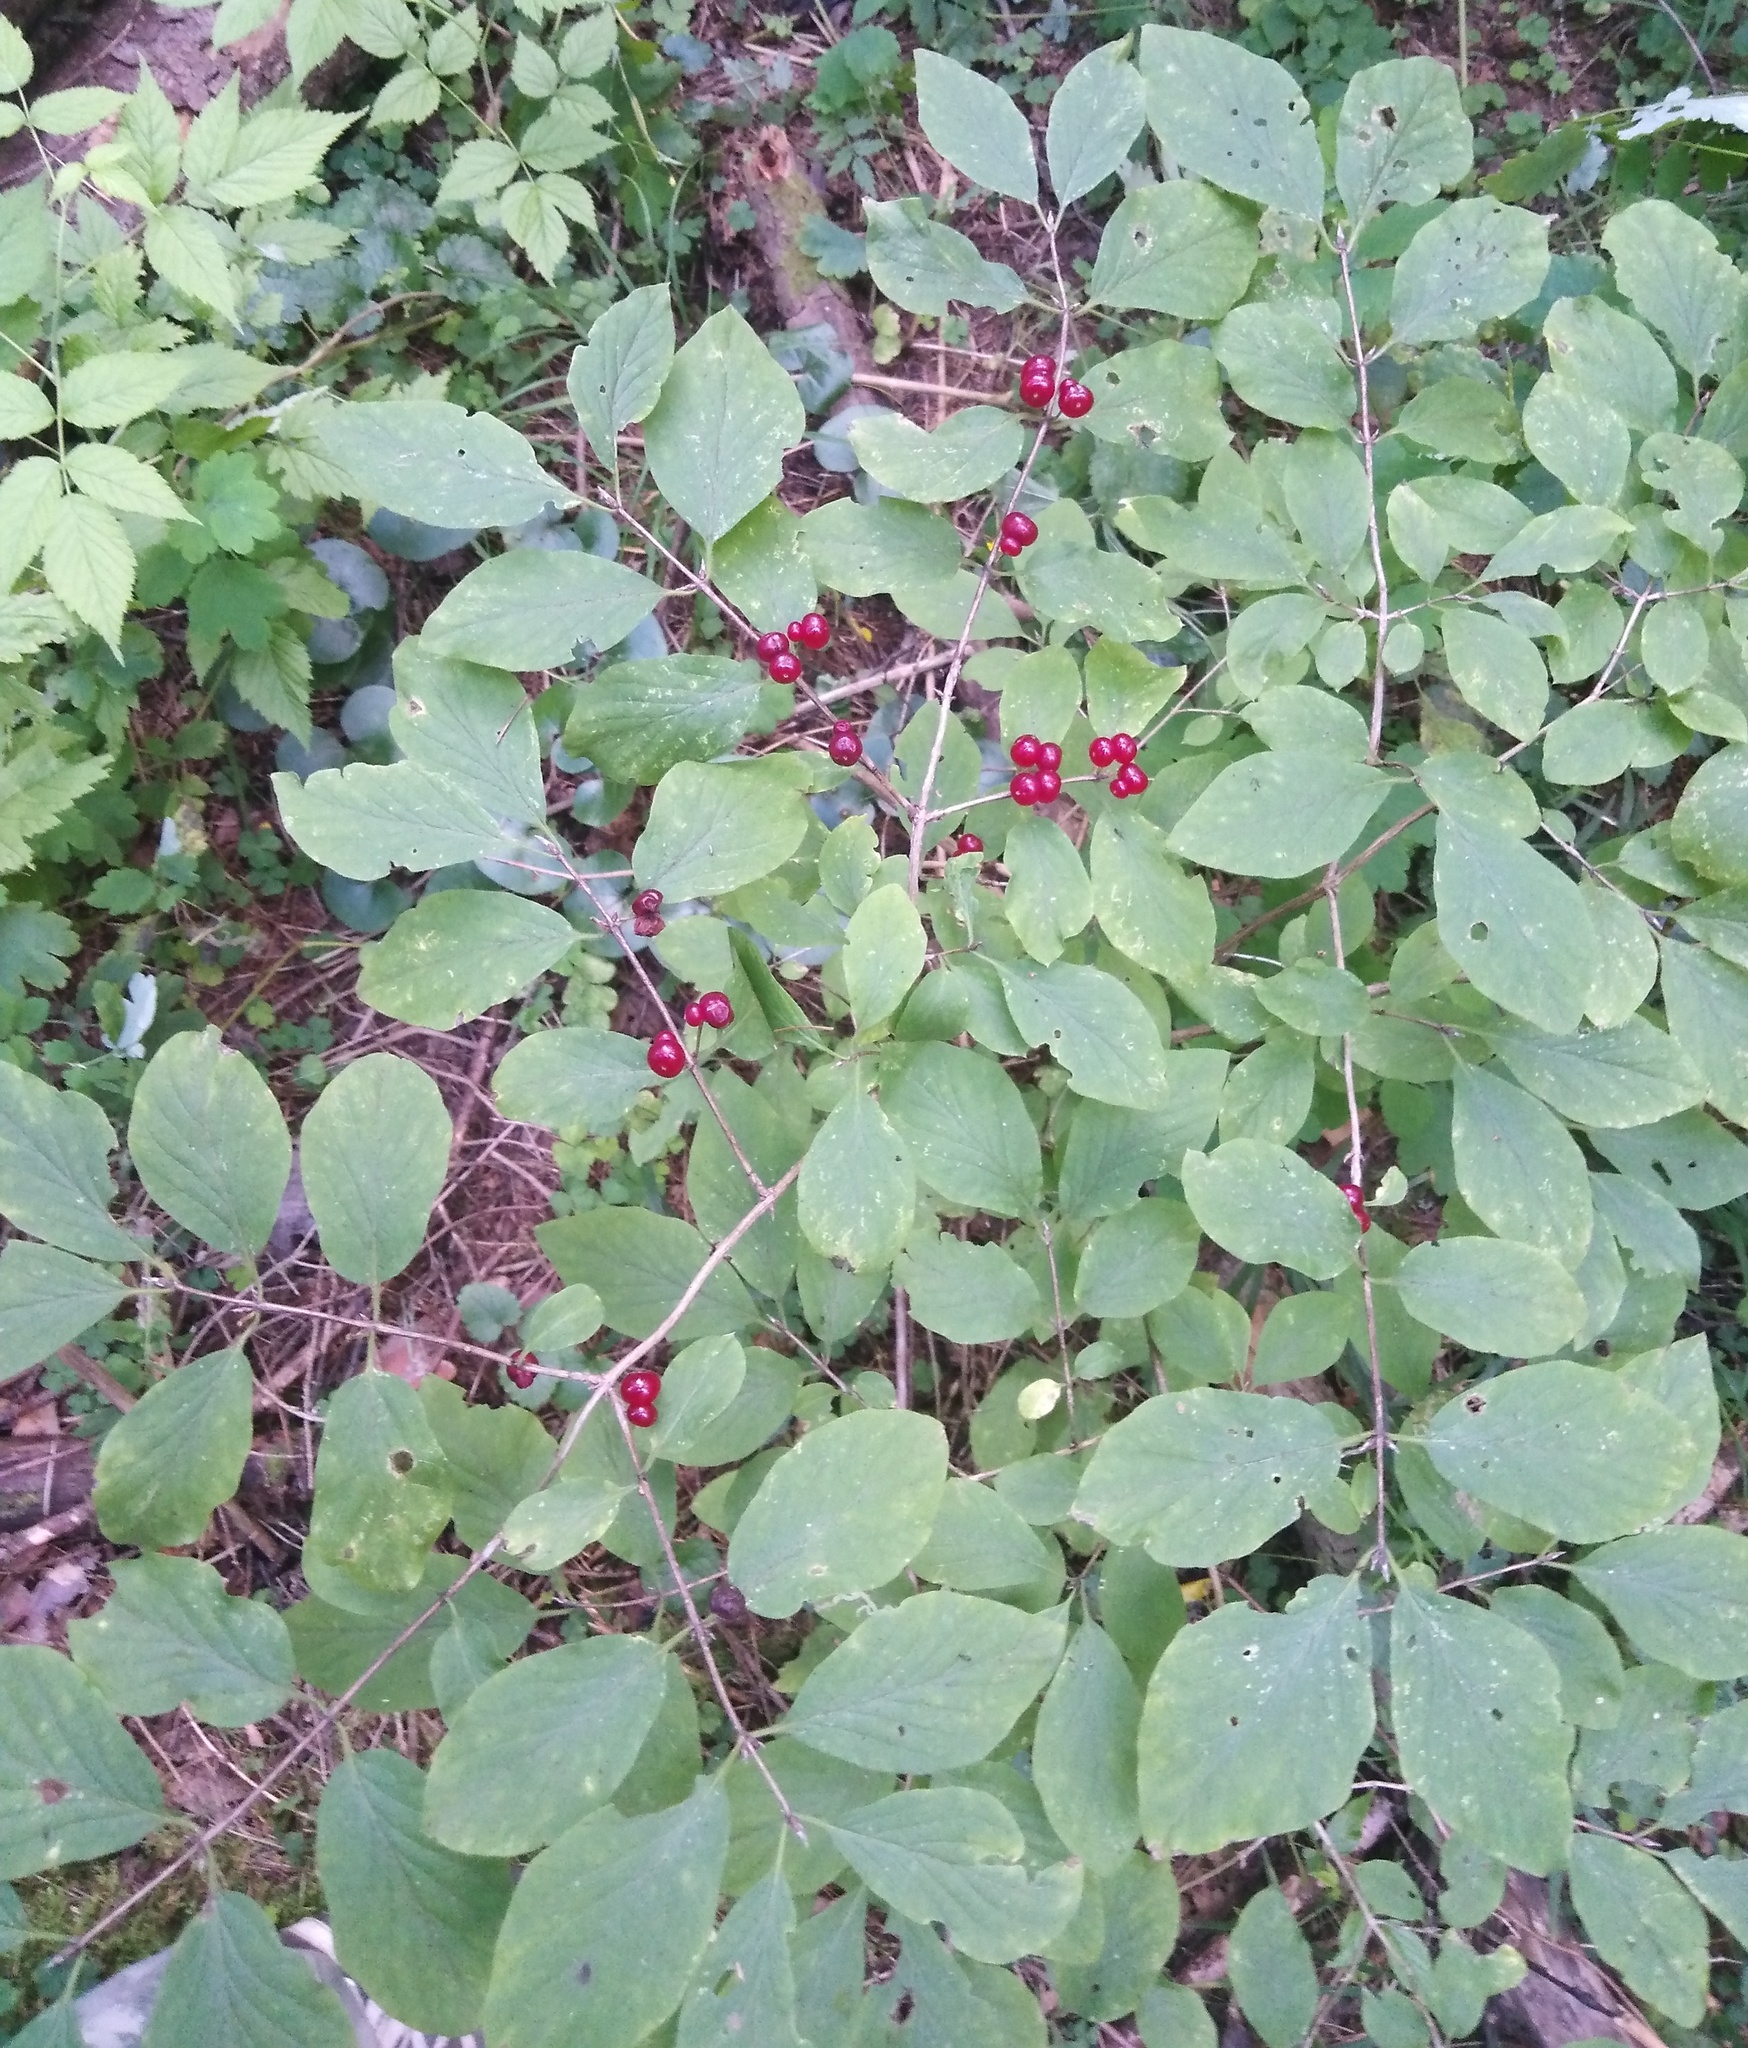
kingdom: Plantae
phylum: Tracheophyta
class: Magnoliopsida
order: Dipsacales
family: Caprifoliaceae
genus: Lonicera
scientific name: Lonicera xylosteum
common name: Fly honeysuckle
